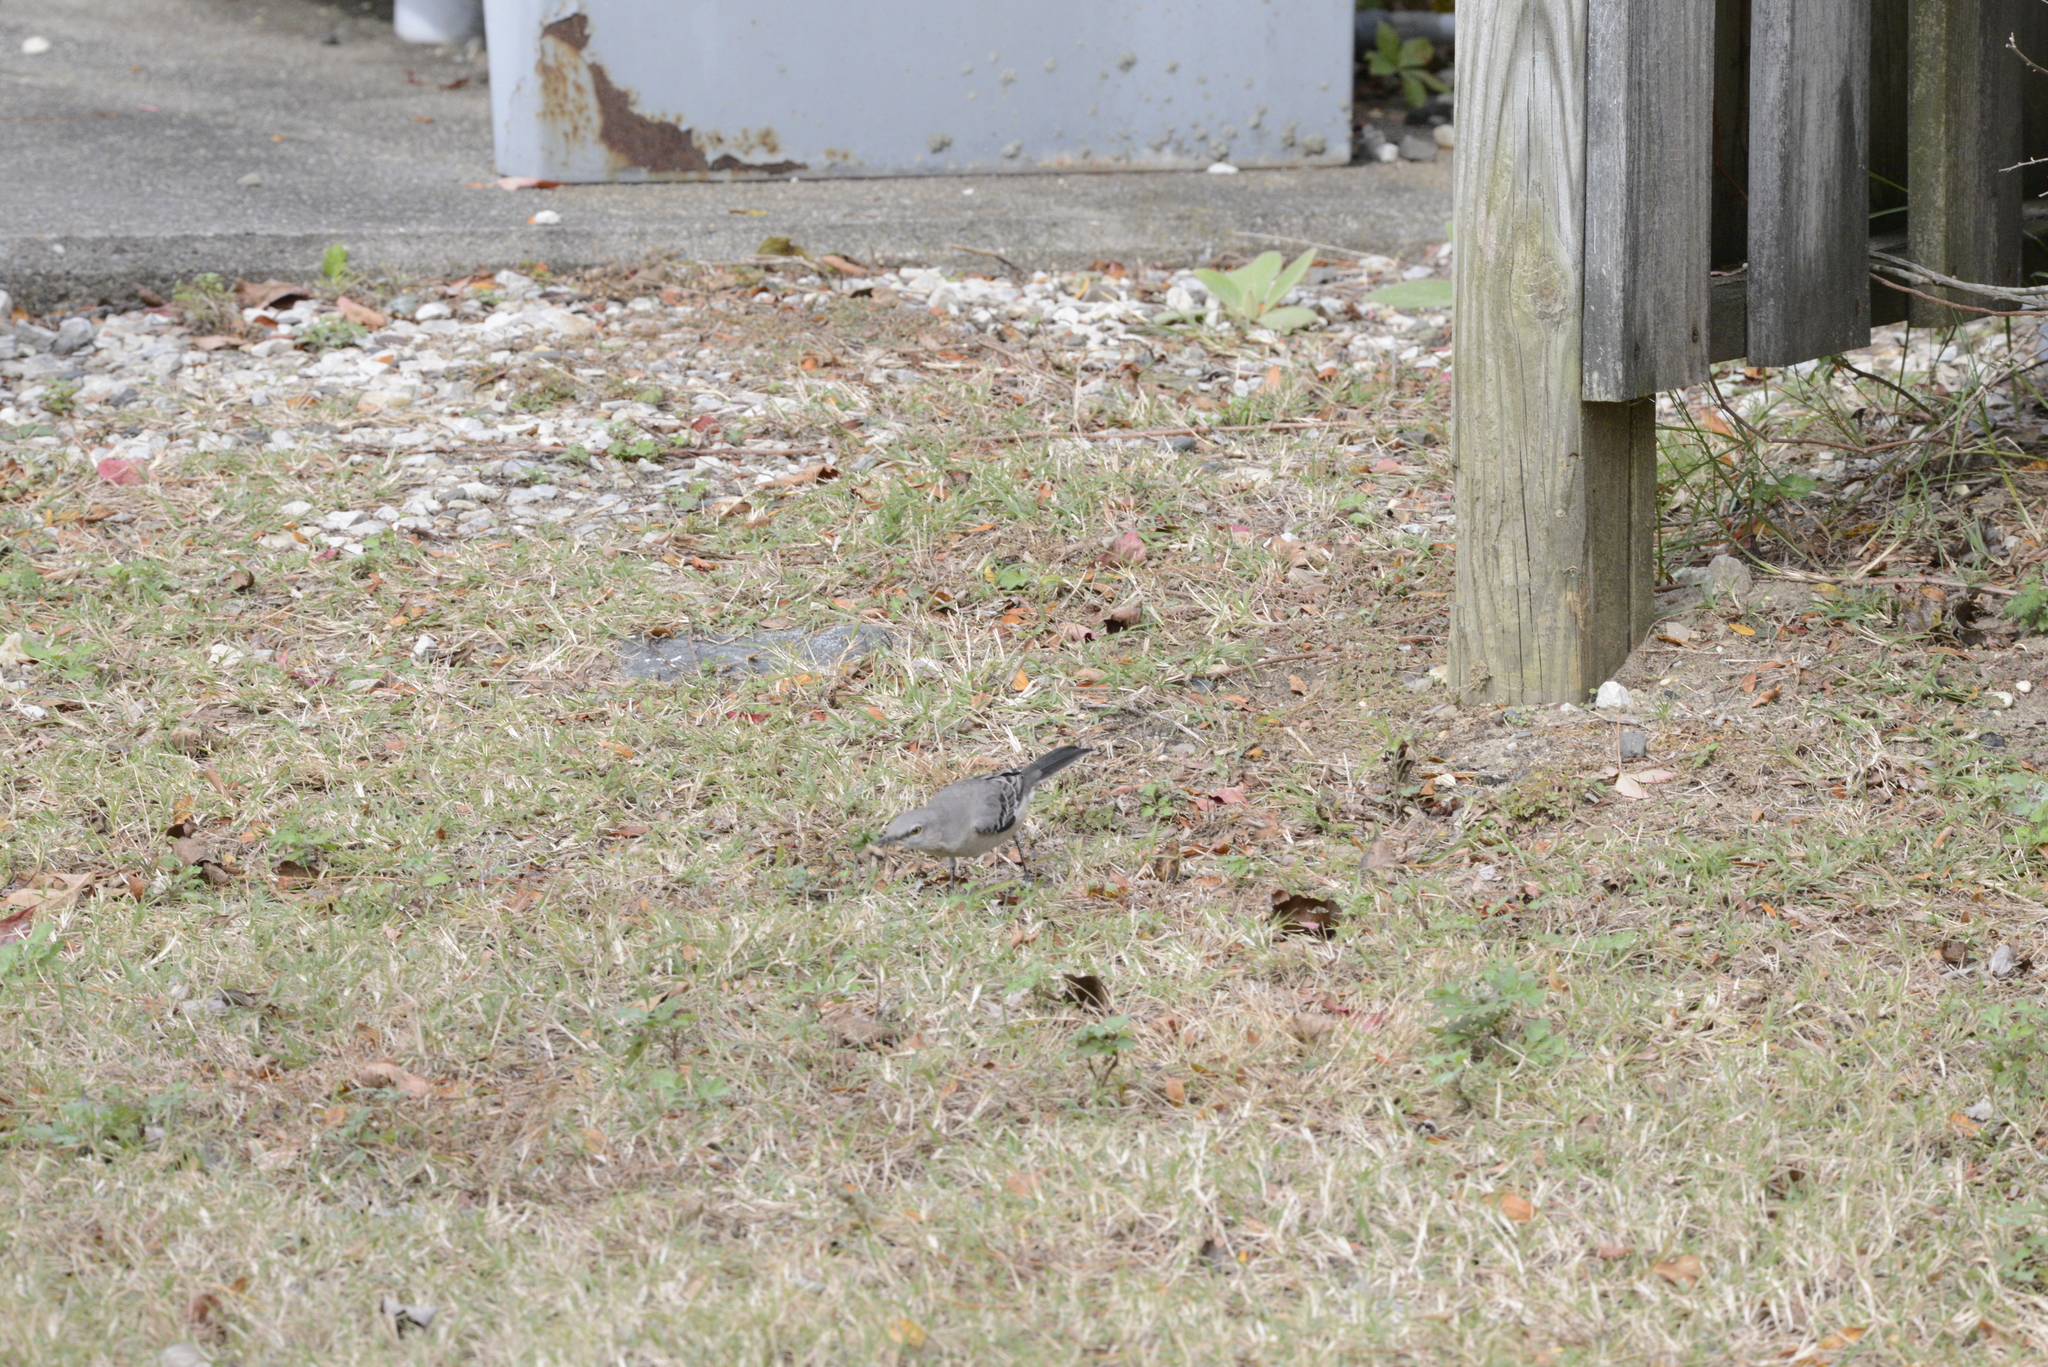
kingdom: Animalia
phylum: Chordata
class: Aves
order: Passeriformes
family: Mimidae
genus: Mimus
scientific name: Mimus polyglottos
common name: Northern mockingbird
